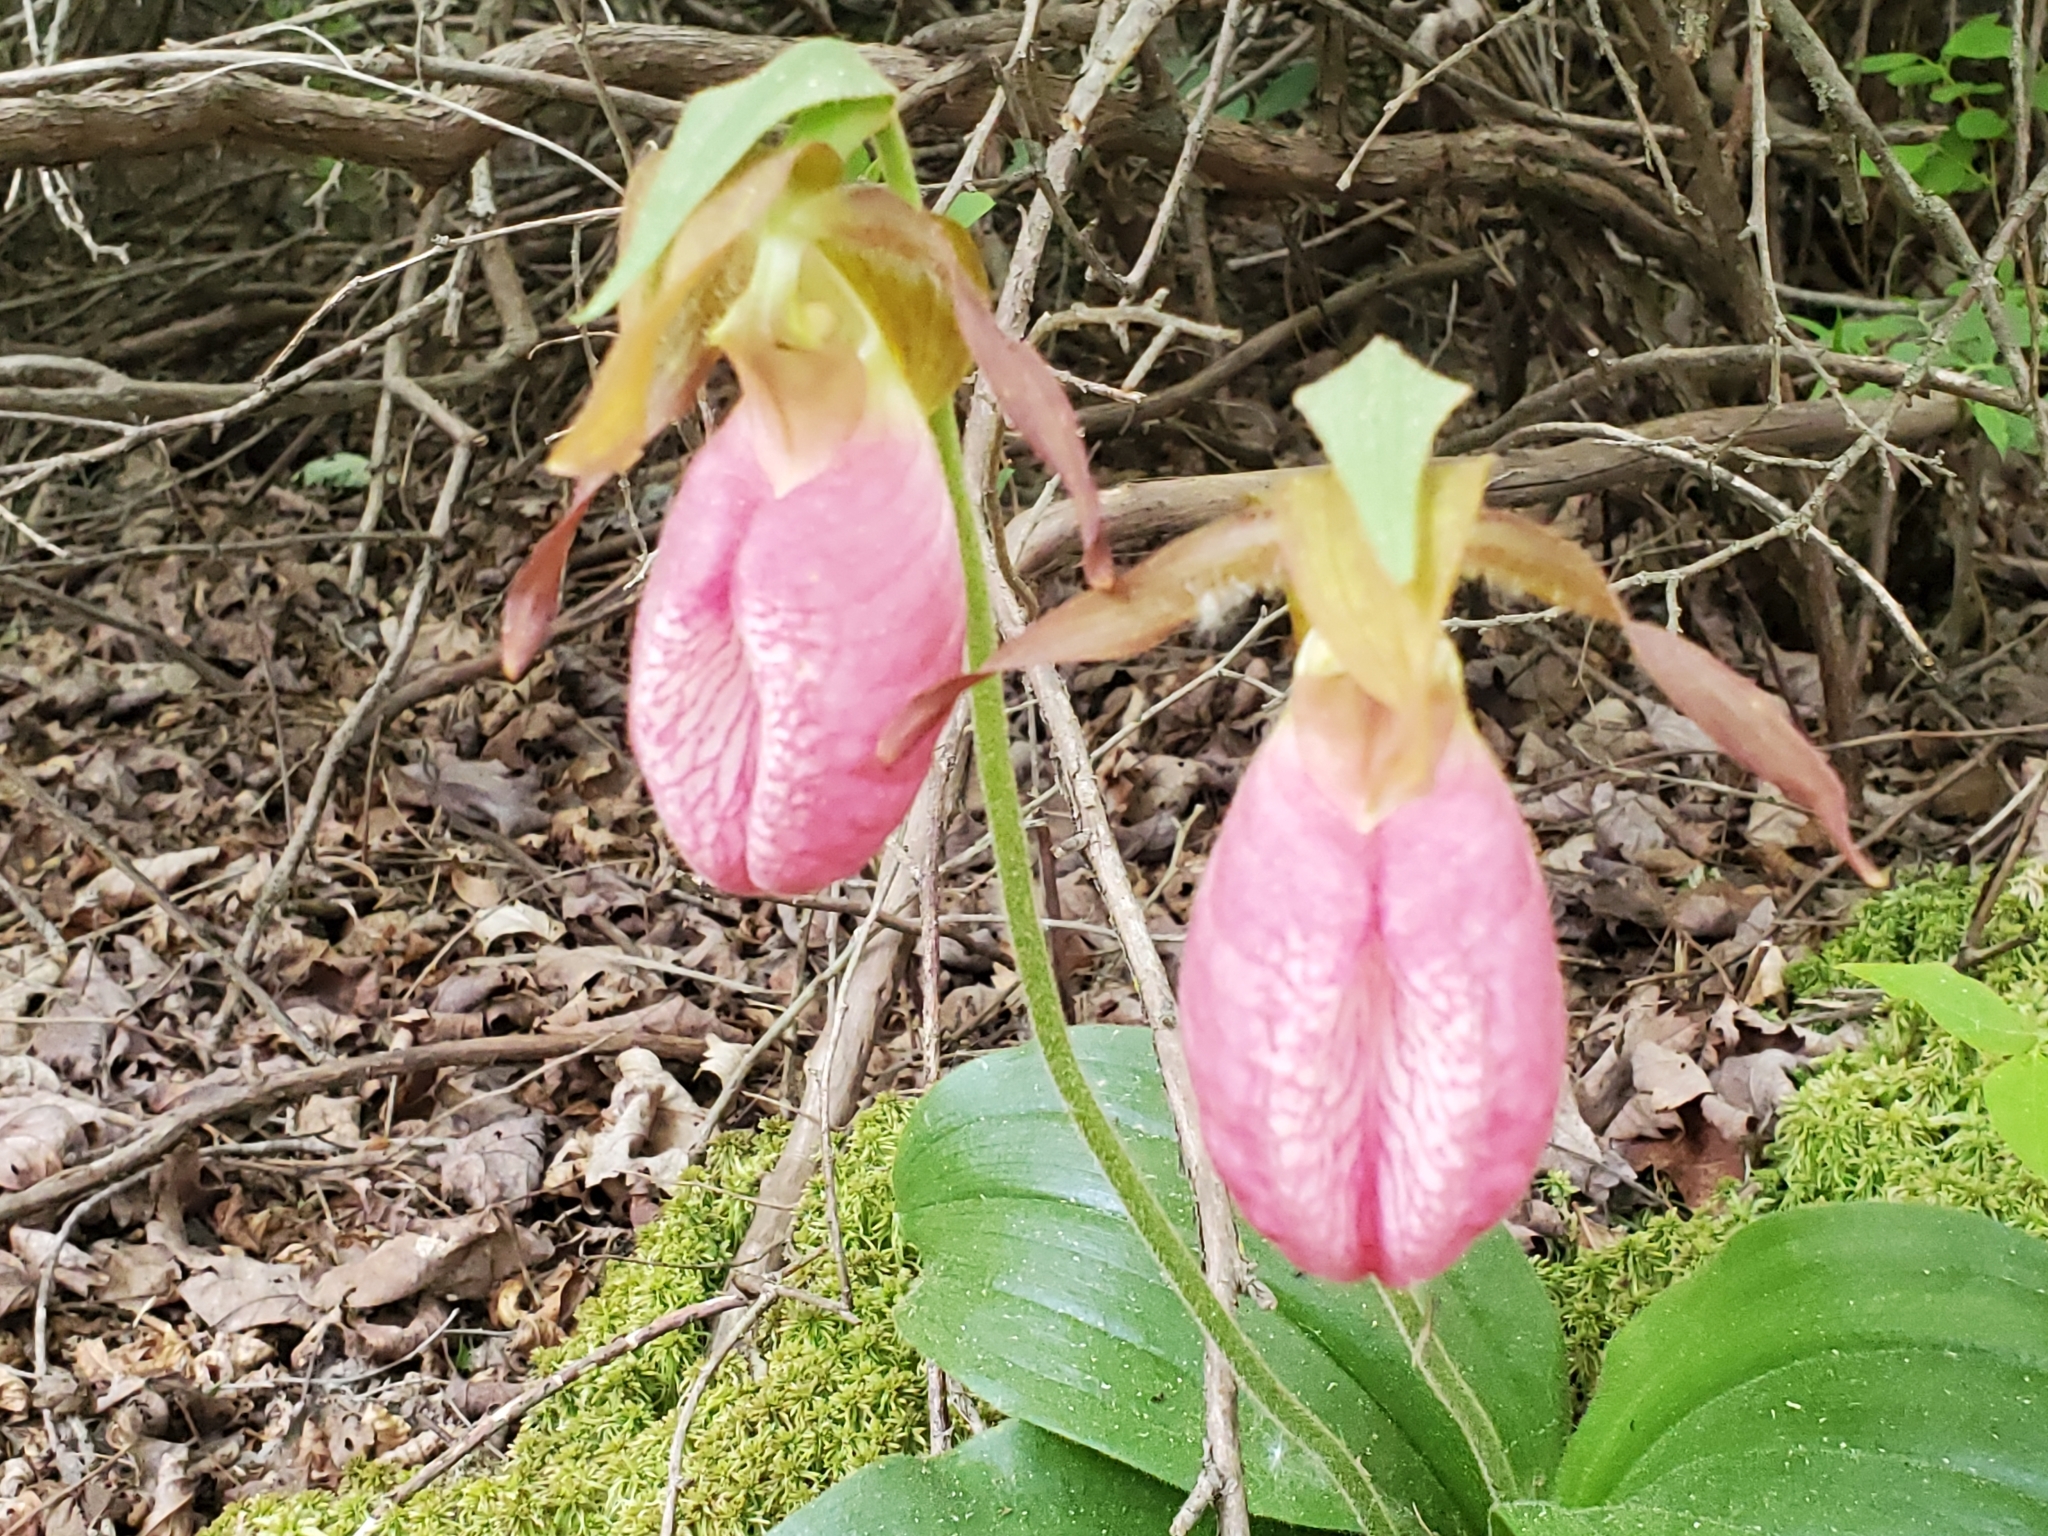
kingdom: Plantae
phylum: Tracheophyta
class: Liliopsida
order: Asparagales
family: Orchidaceae
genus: Cypripedium
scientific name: Cypripedium acaule
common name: Pink lady's-slipper
